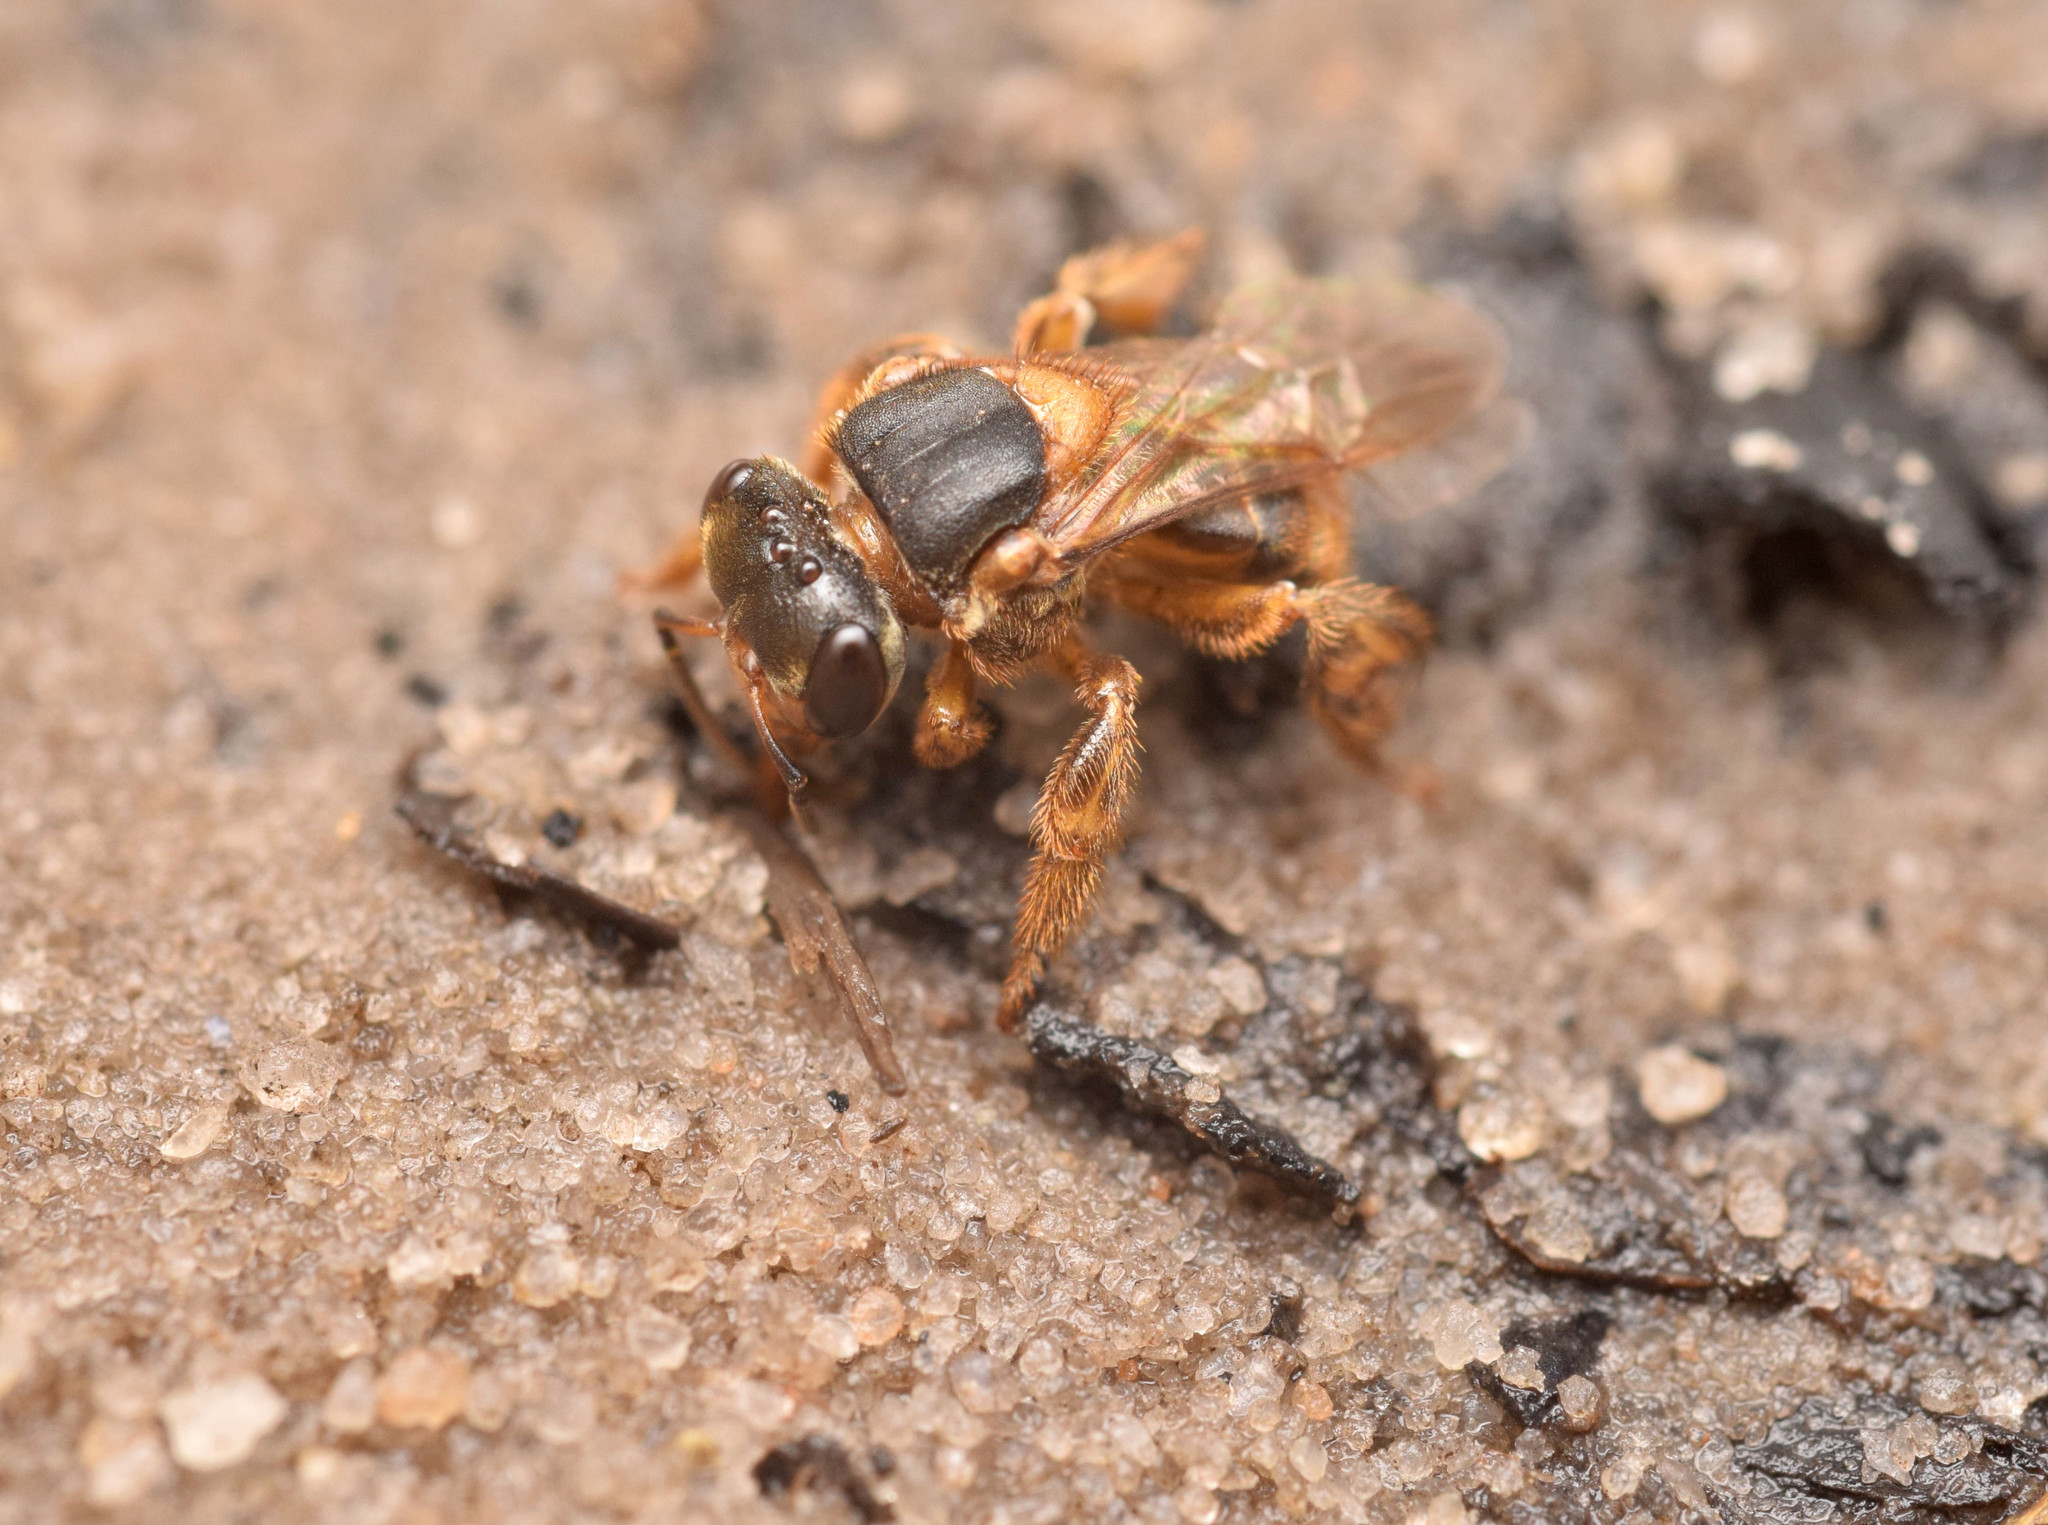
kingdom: Animalia
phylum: Arthropoda
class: Insecta
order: Hymenoptera
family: Apidae
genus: Scaptotrigona
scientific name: Scaptotrigona xanthotricha
